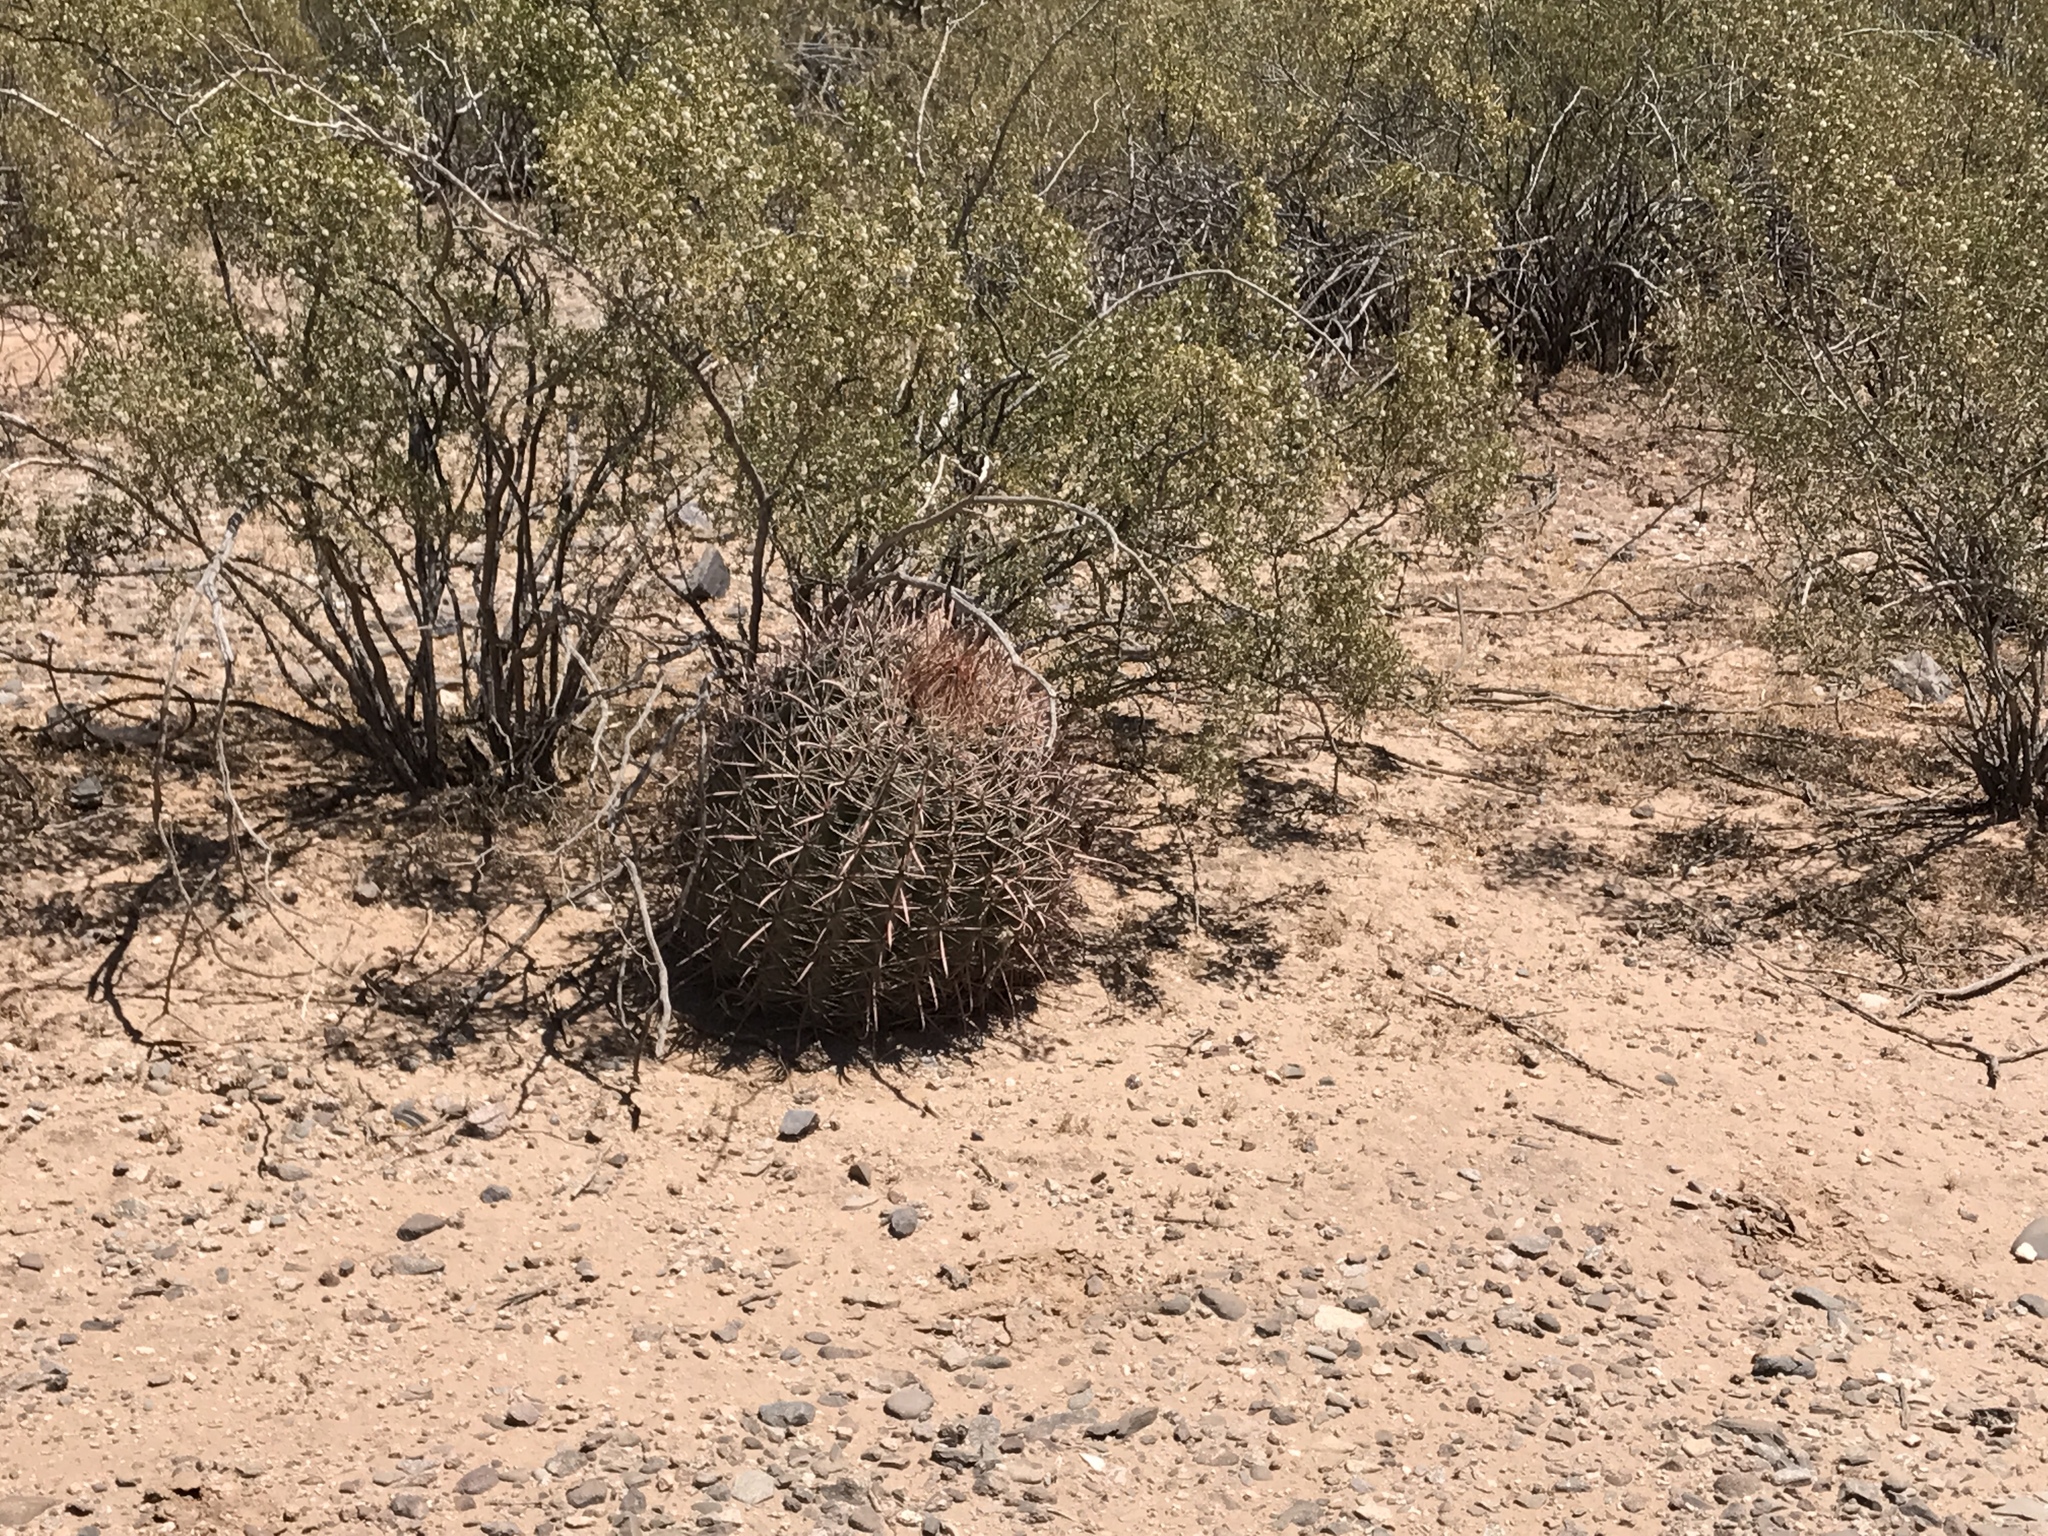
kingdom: Plantae
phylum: Tracheophyta
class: Magnoliopsida
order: Caryophyllales
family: Cactaceae
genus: Ferocactus
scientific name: Ferocactus wislizeni
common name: Candy barrel cactus
